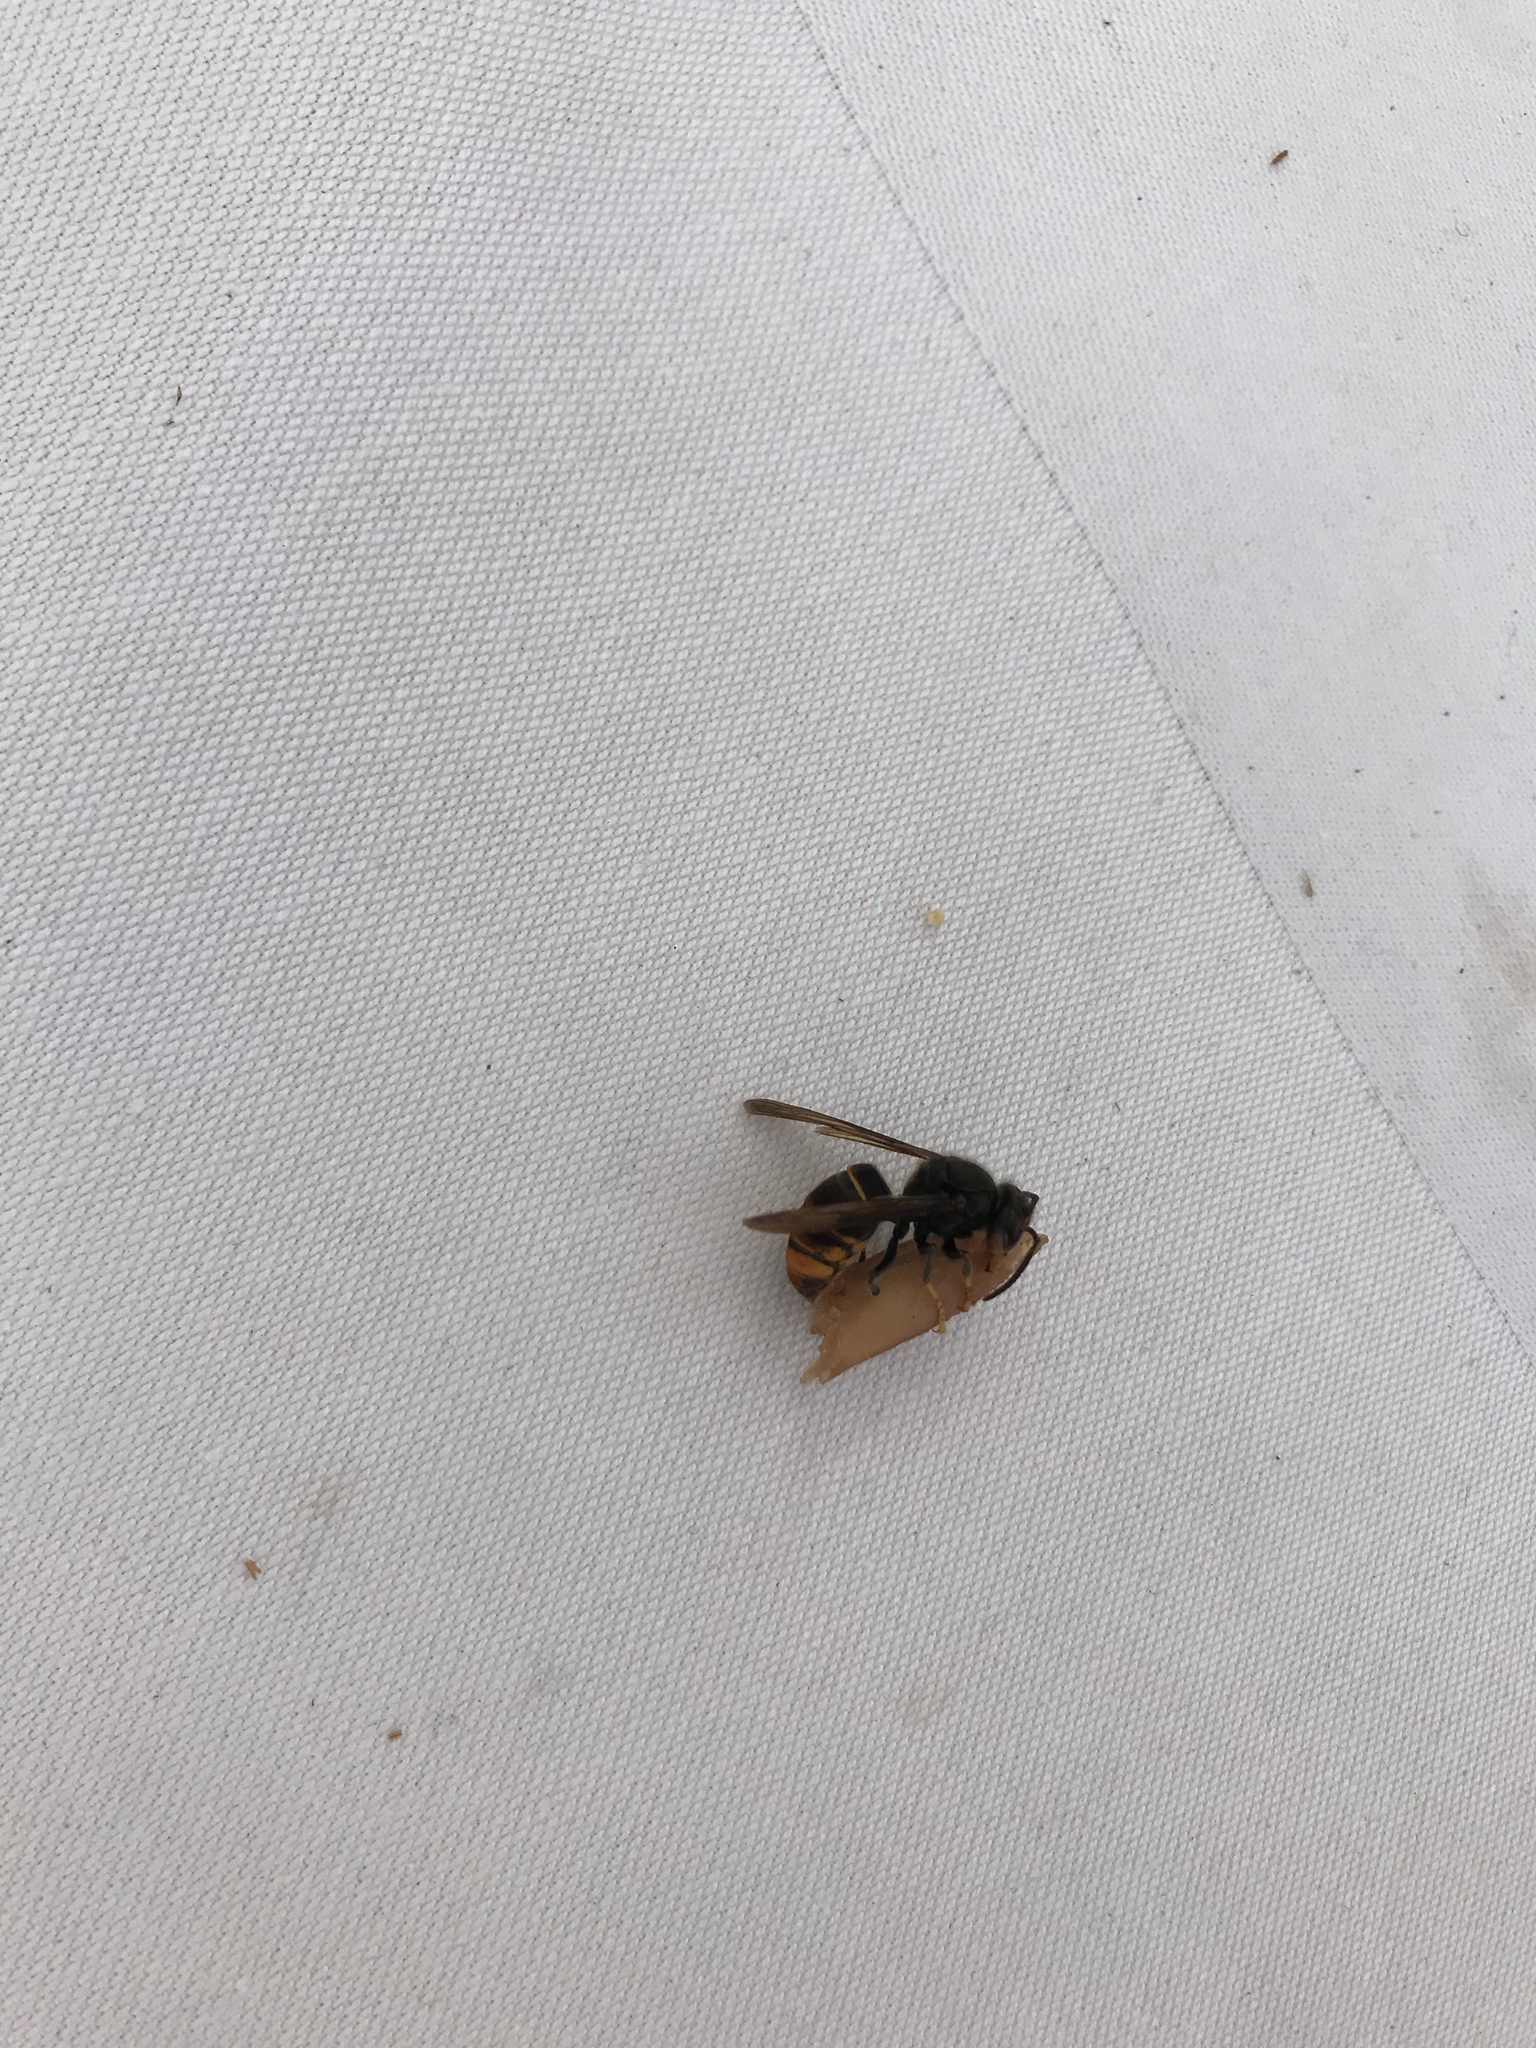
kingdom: Animalia
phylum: Arthropoda
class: Insecta
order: Hymenoptera
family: Vespidae
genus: Vespa
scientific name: Vespa velutina
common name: Asian hornet
